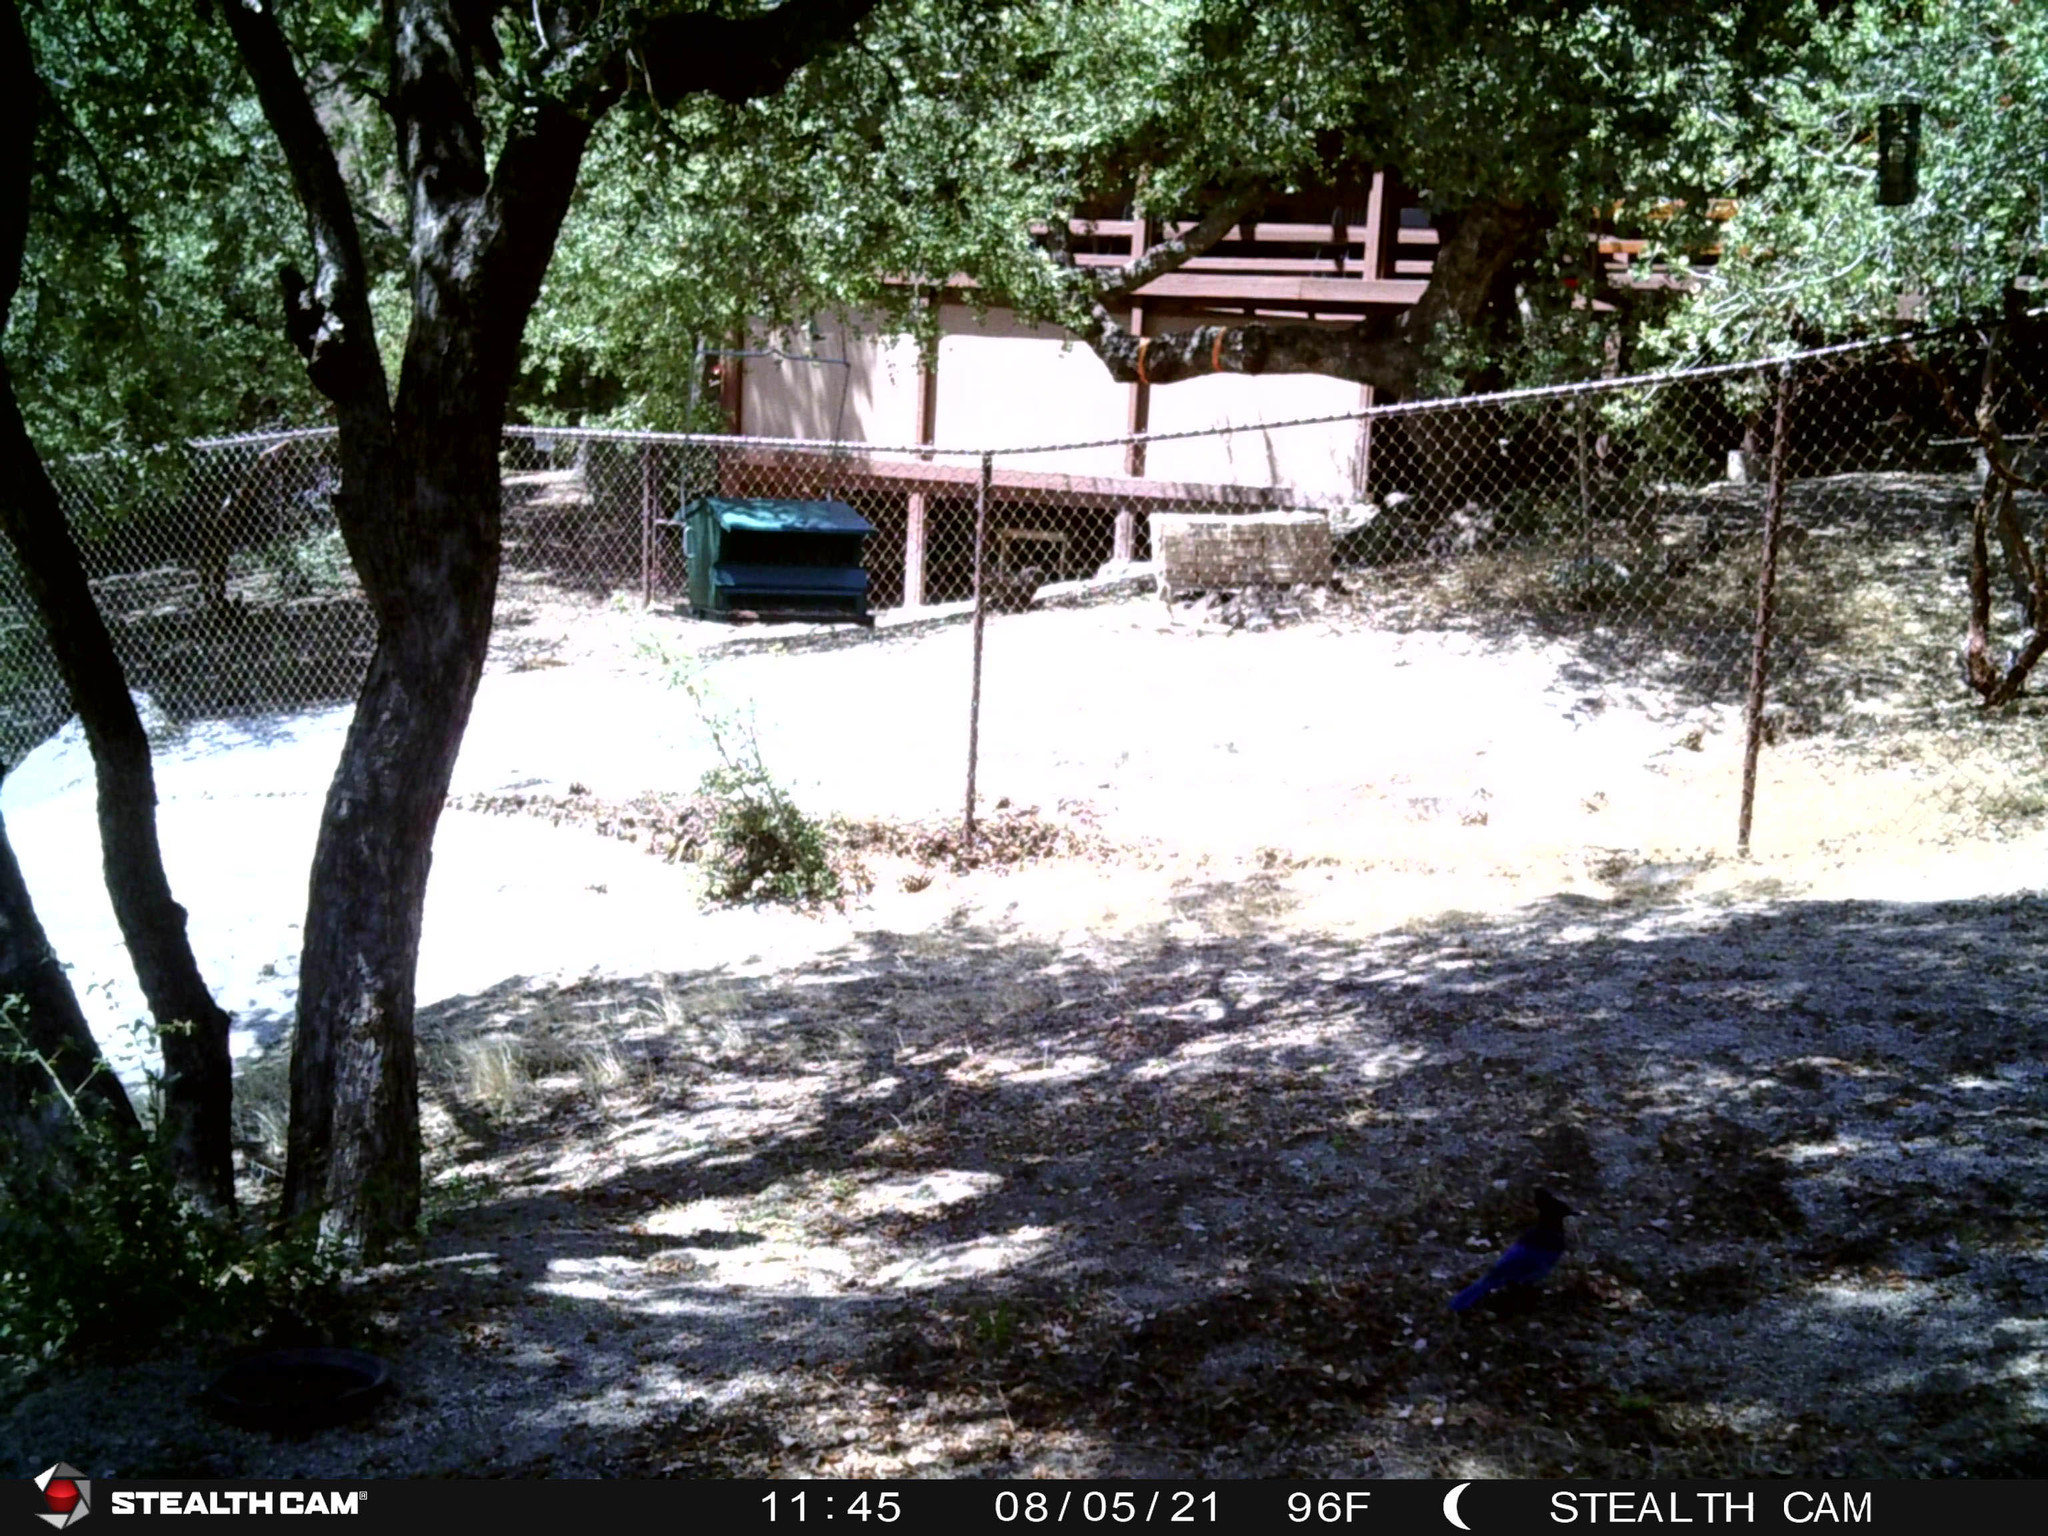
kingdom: Animalia
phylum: Chordata
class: Aves
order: Passeriformes
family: Corvidae
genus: Cyanocitta
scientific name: Cyanocitta stelleri
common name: Steller's jay
